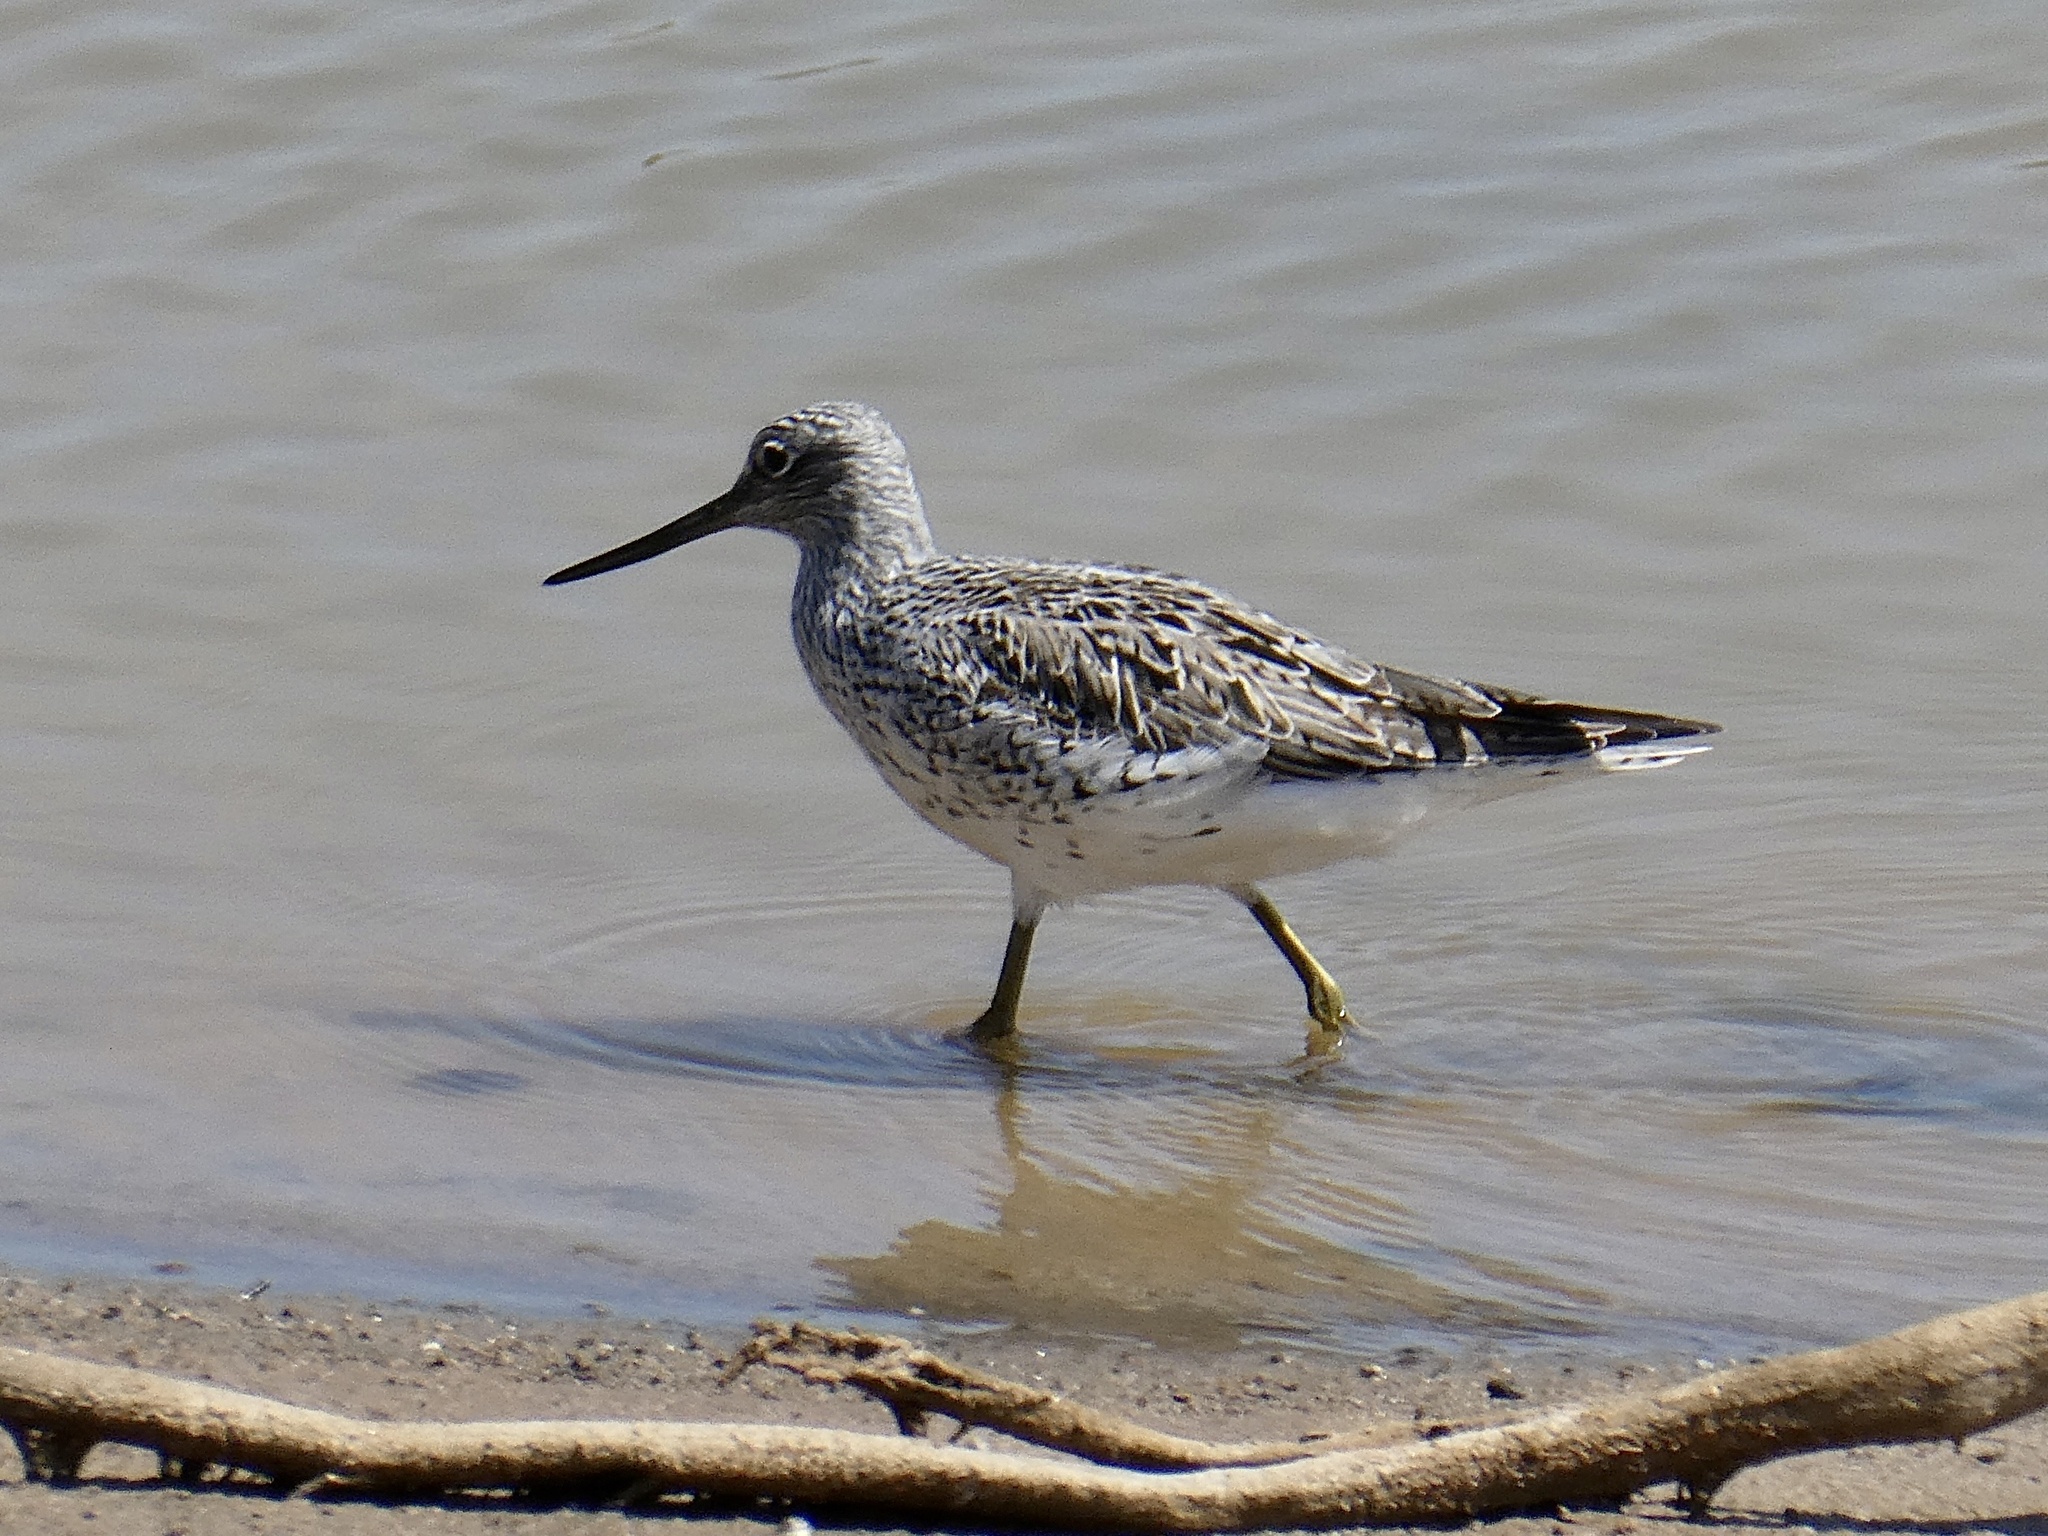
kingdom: Animalia
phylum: Chordata
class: Aves
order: Charadriiformes
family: Scolopacidae
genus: Tringa
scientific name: Tringa nebularia
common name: Common greenshank
